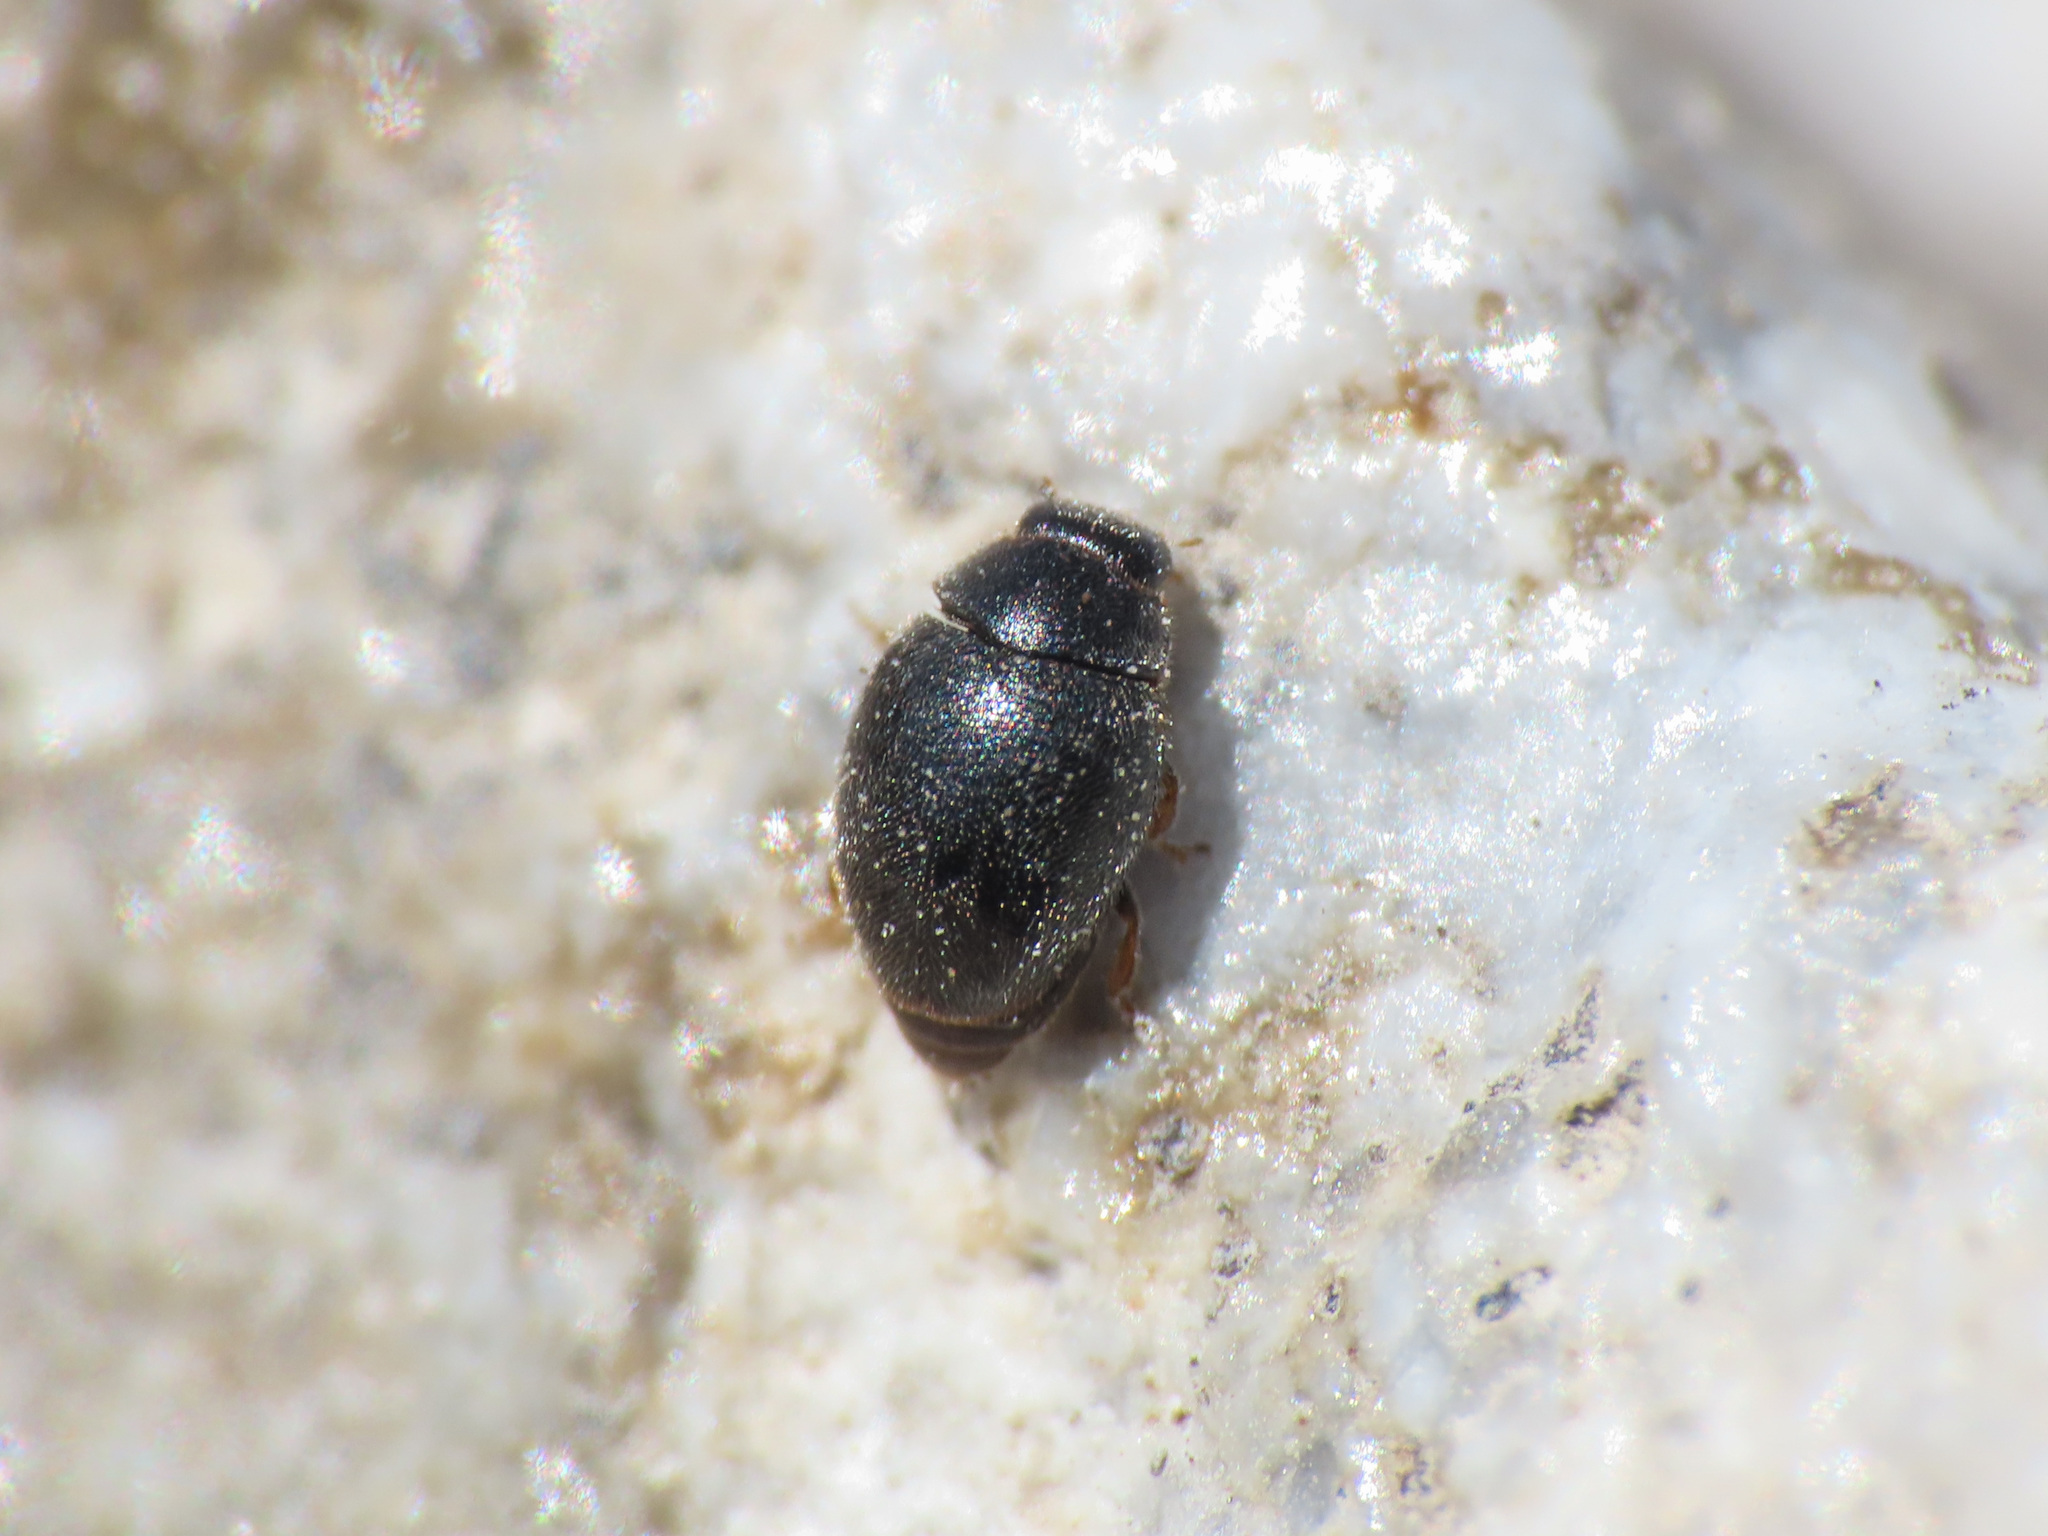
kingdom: Animalia
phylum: Arthropoda
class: Insecta
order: Coleoptera
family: Coccinellidae
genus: Scymnus
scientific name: Scymnus femoralis
